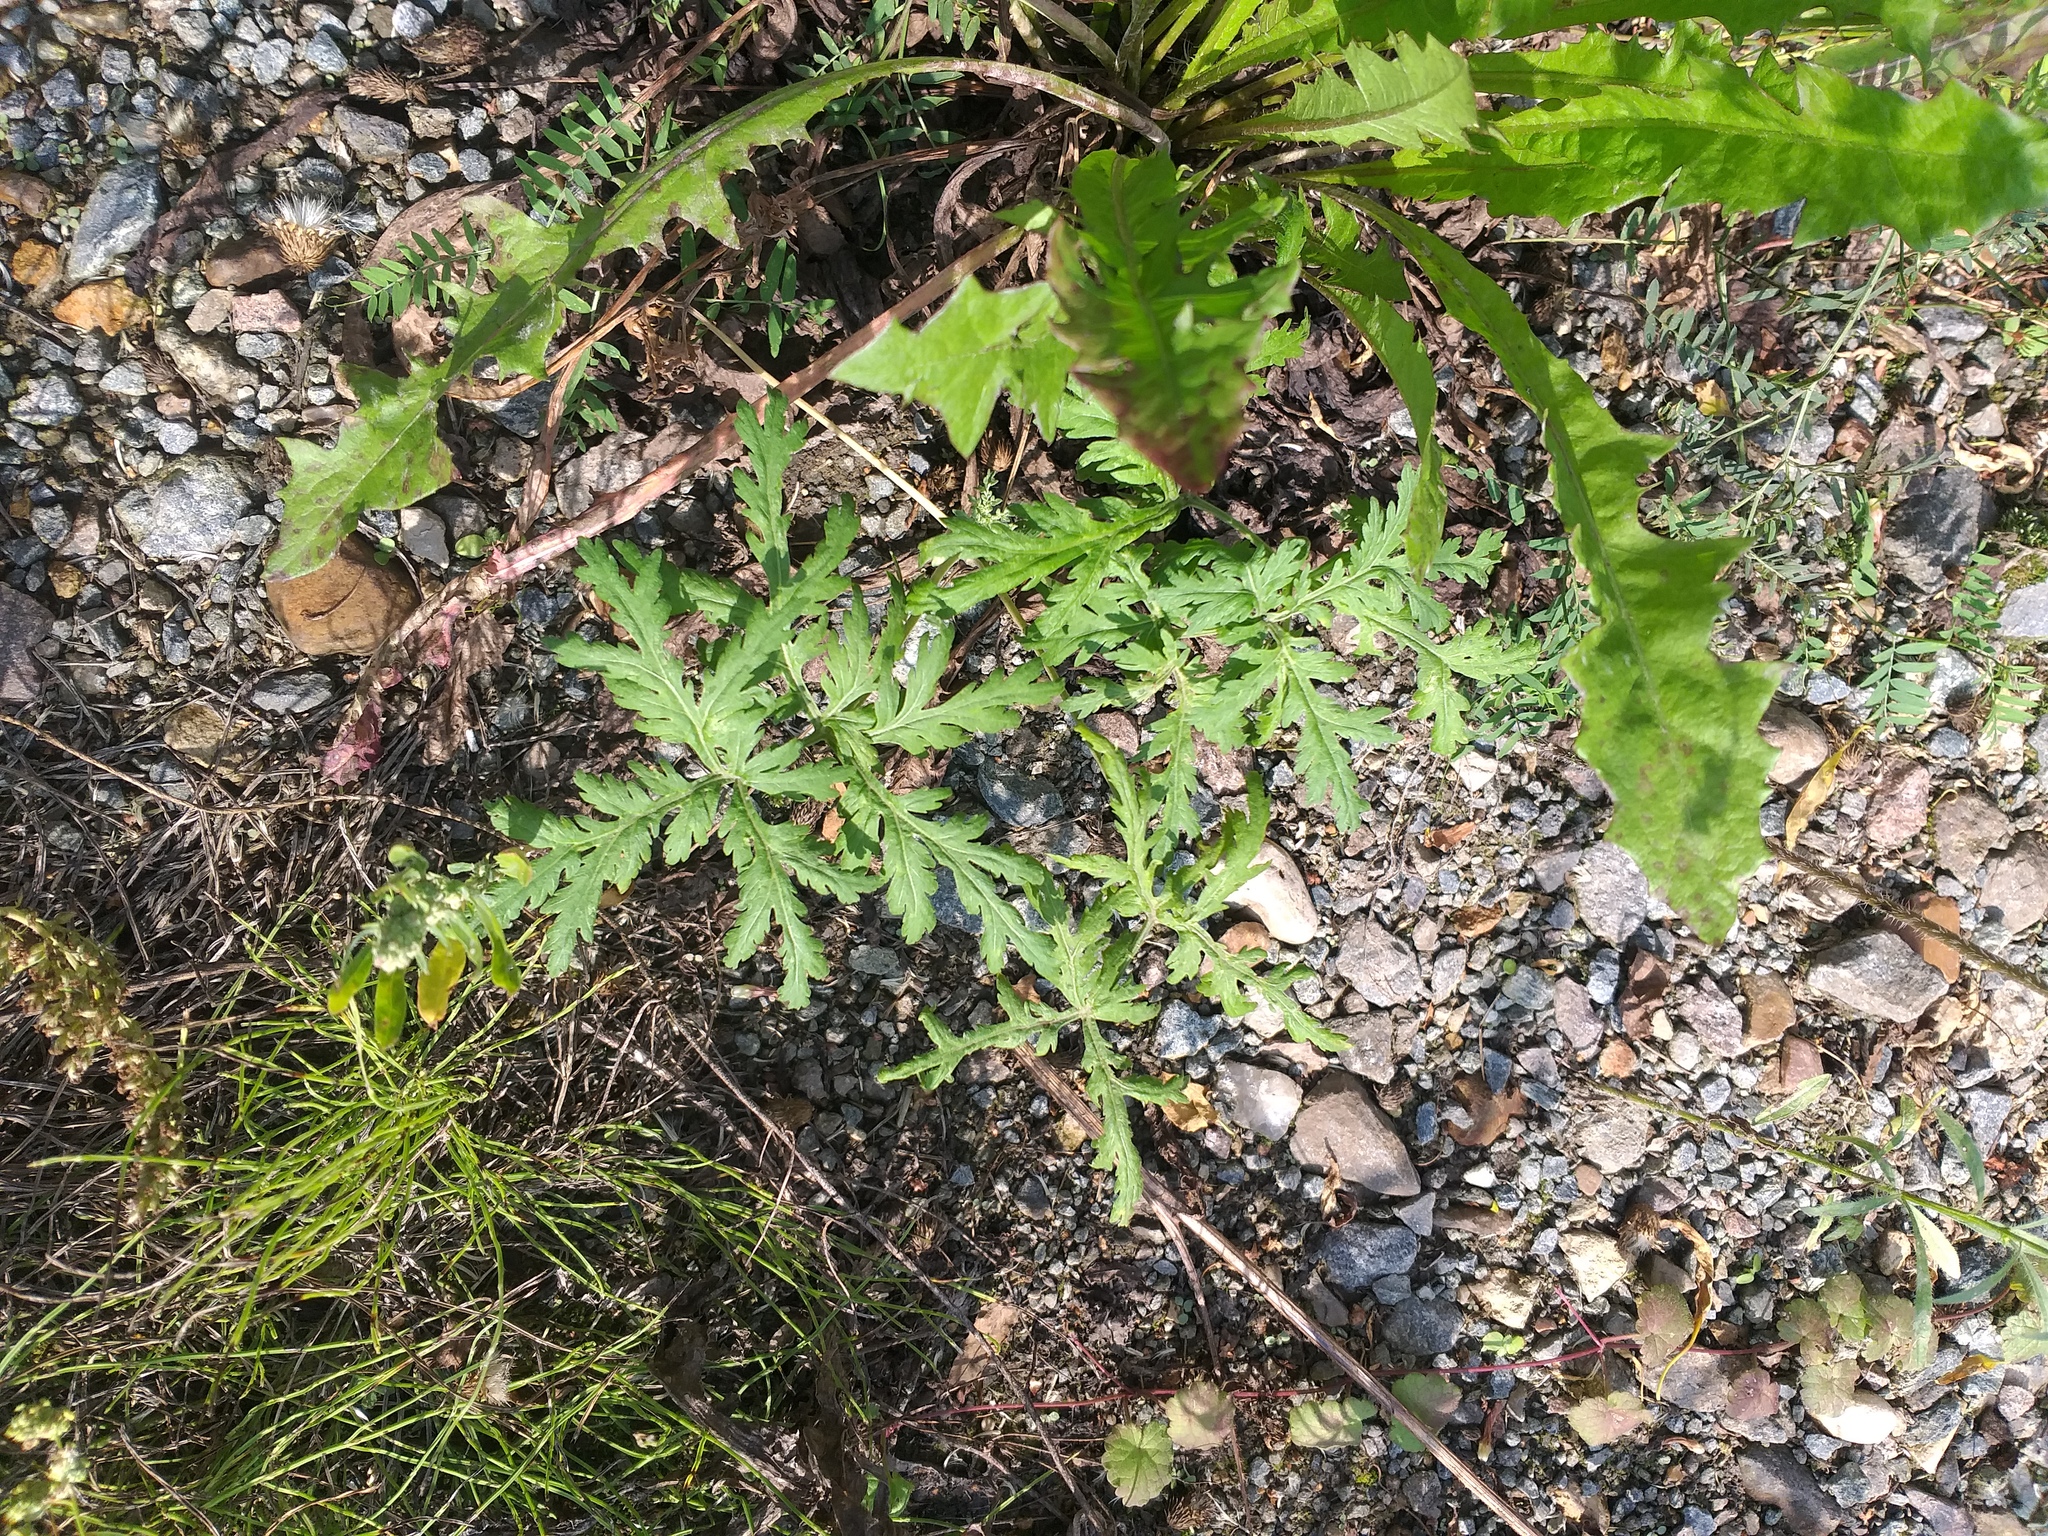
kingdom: Plantae
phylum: Tracheophyta
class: Magnoliopsida
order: Asterales
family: Asteraceae
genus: Artemisia
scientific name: Artemisia sieversiana
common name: Sieversian wormwood
